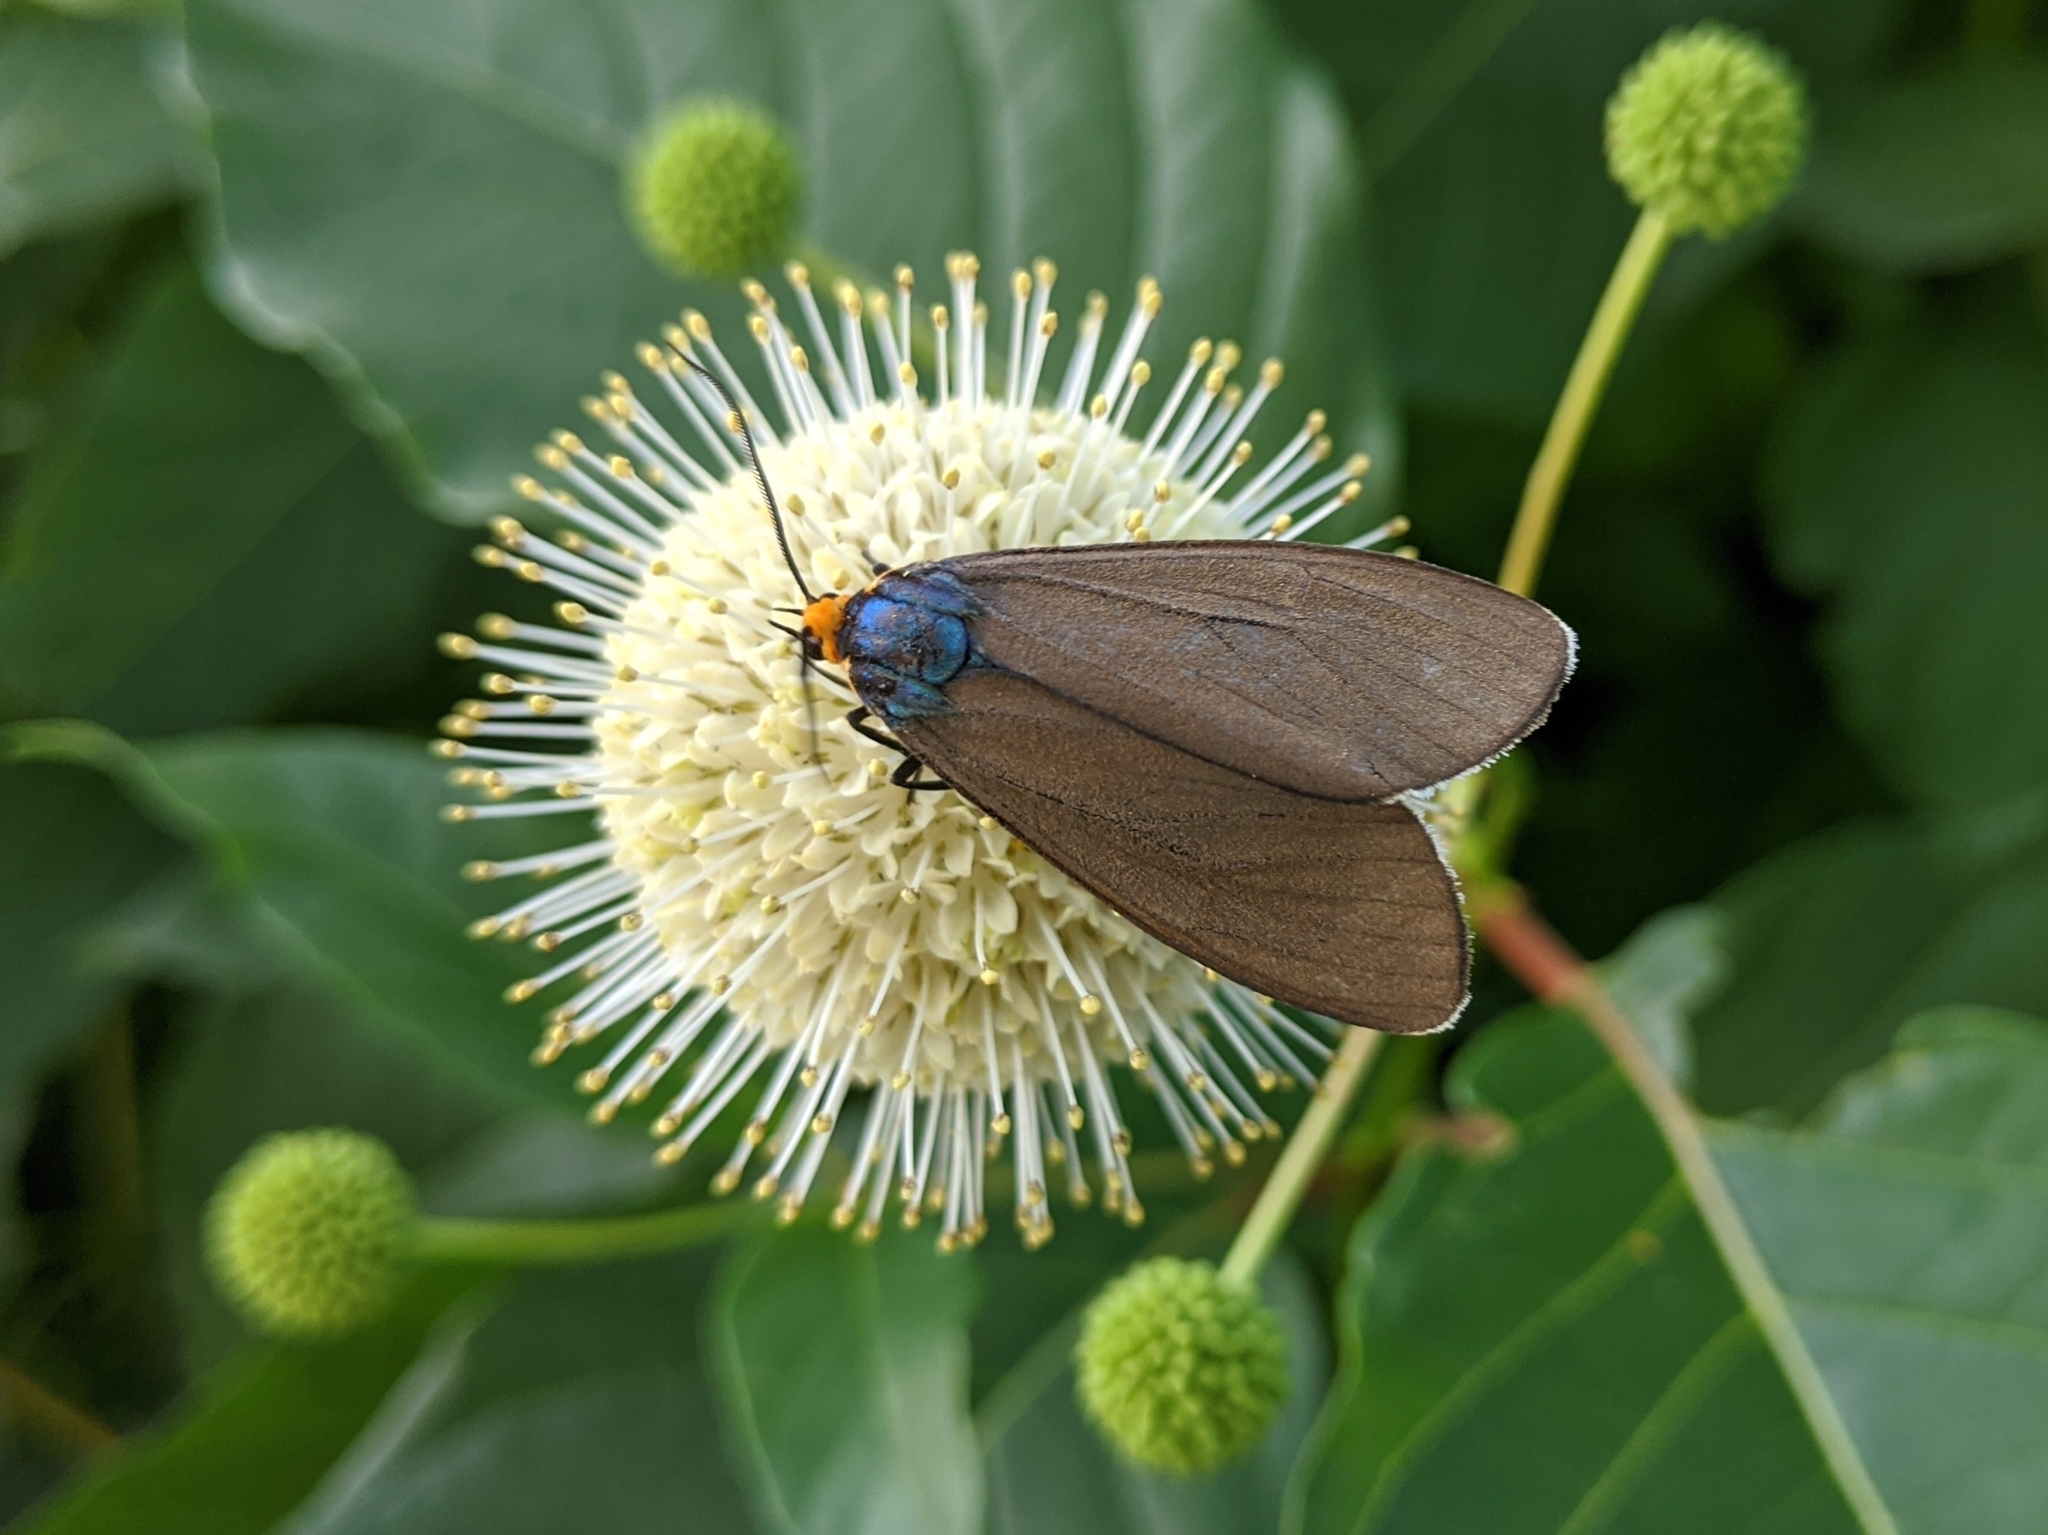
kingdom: Animalia
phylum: Arthropoda
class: Insecta
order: Lepidoptera
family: Erebidae
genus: Ctenucha
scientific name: Ctenucha virginica
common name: Virginia ctenucha moth
